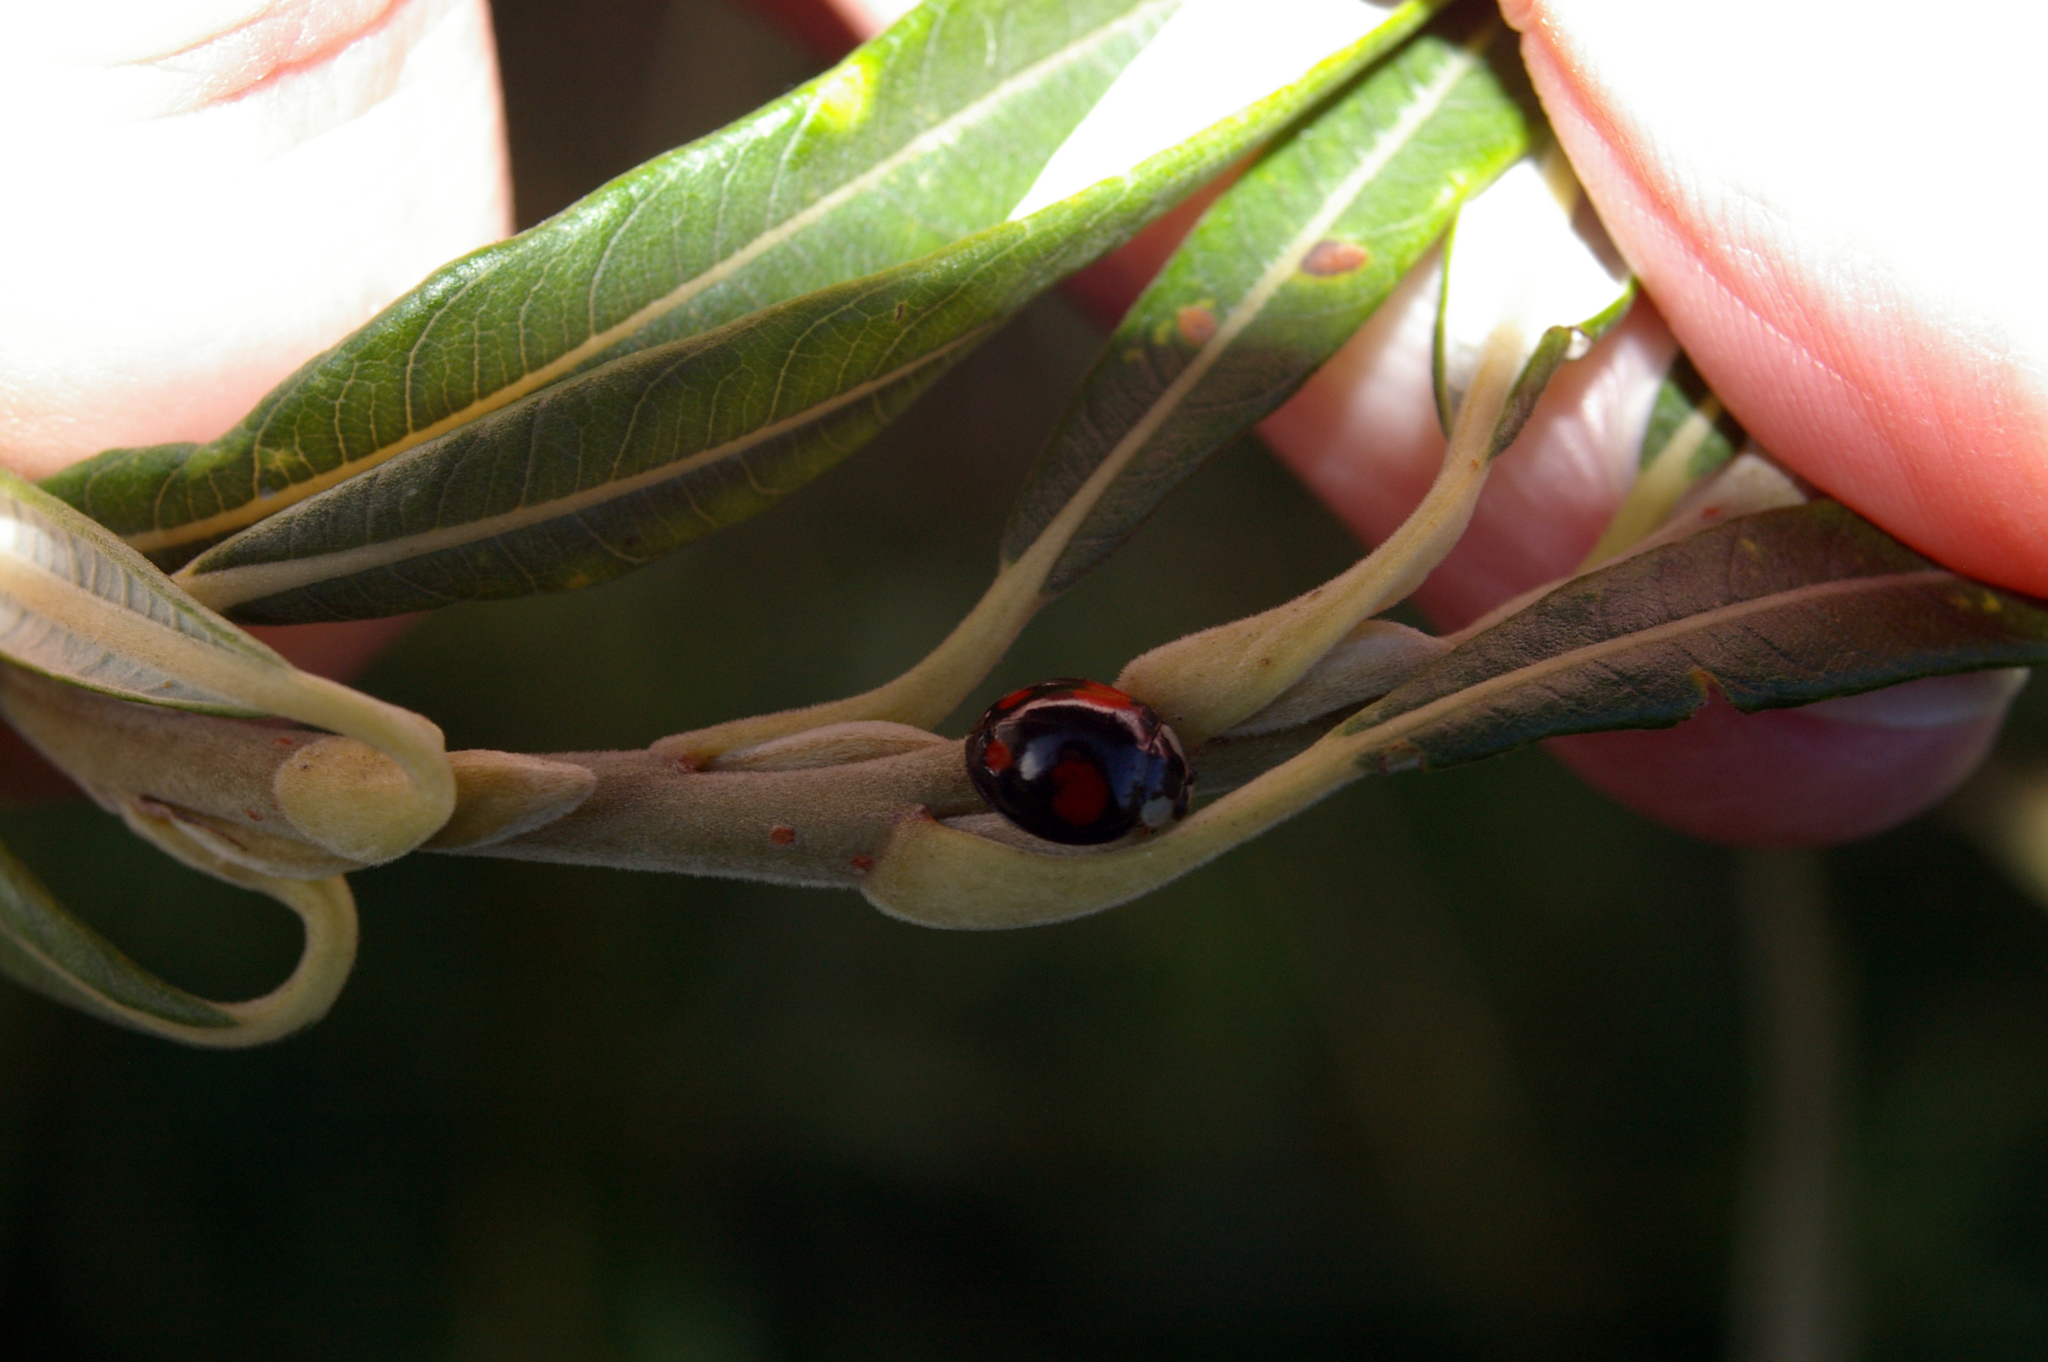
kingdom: Animalia
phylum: Arthropoda
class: Insecta
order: Coleoptera
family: Coccinellidae
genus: Harmonia
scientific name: Harmonia axyridis
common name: Harlequin ladybird
